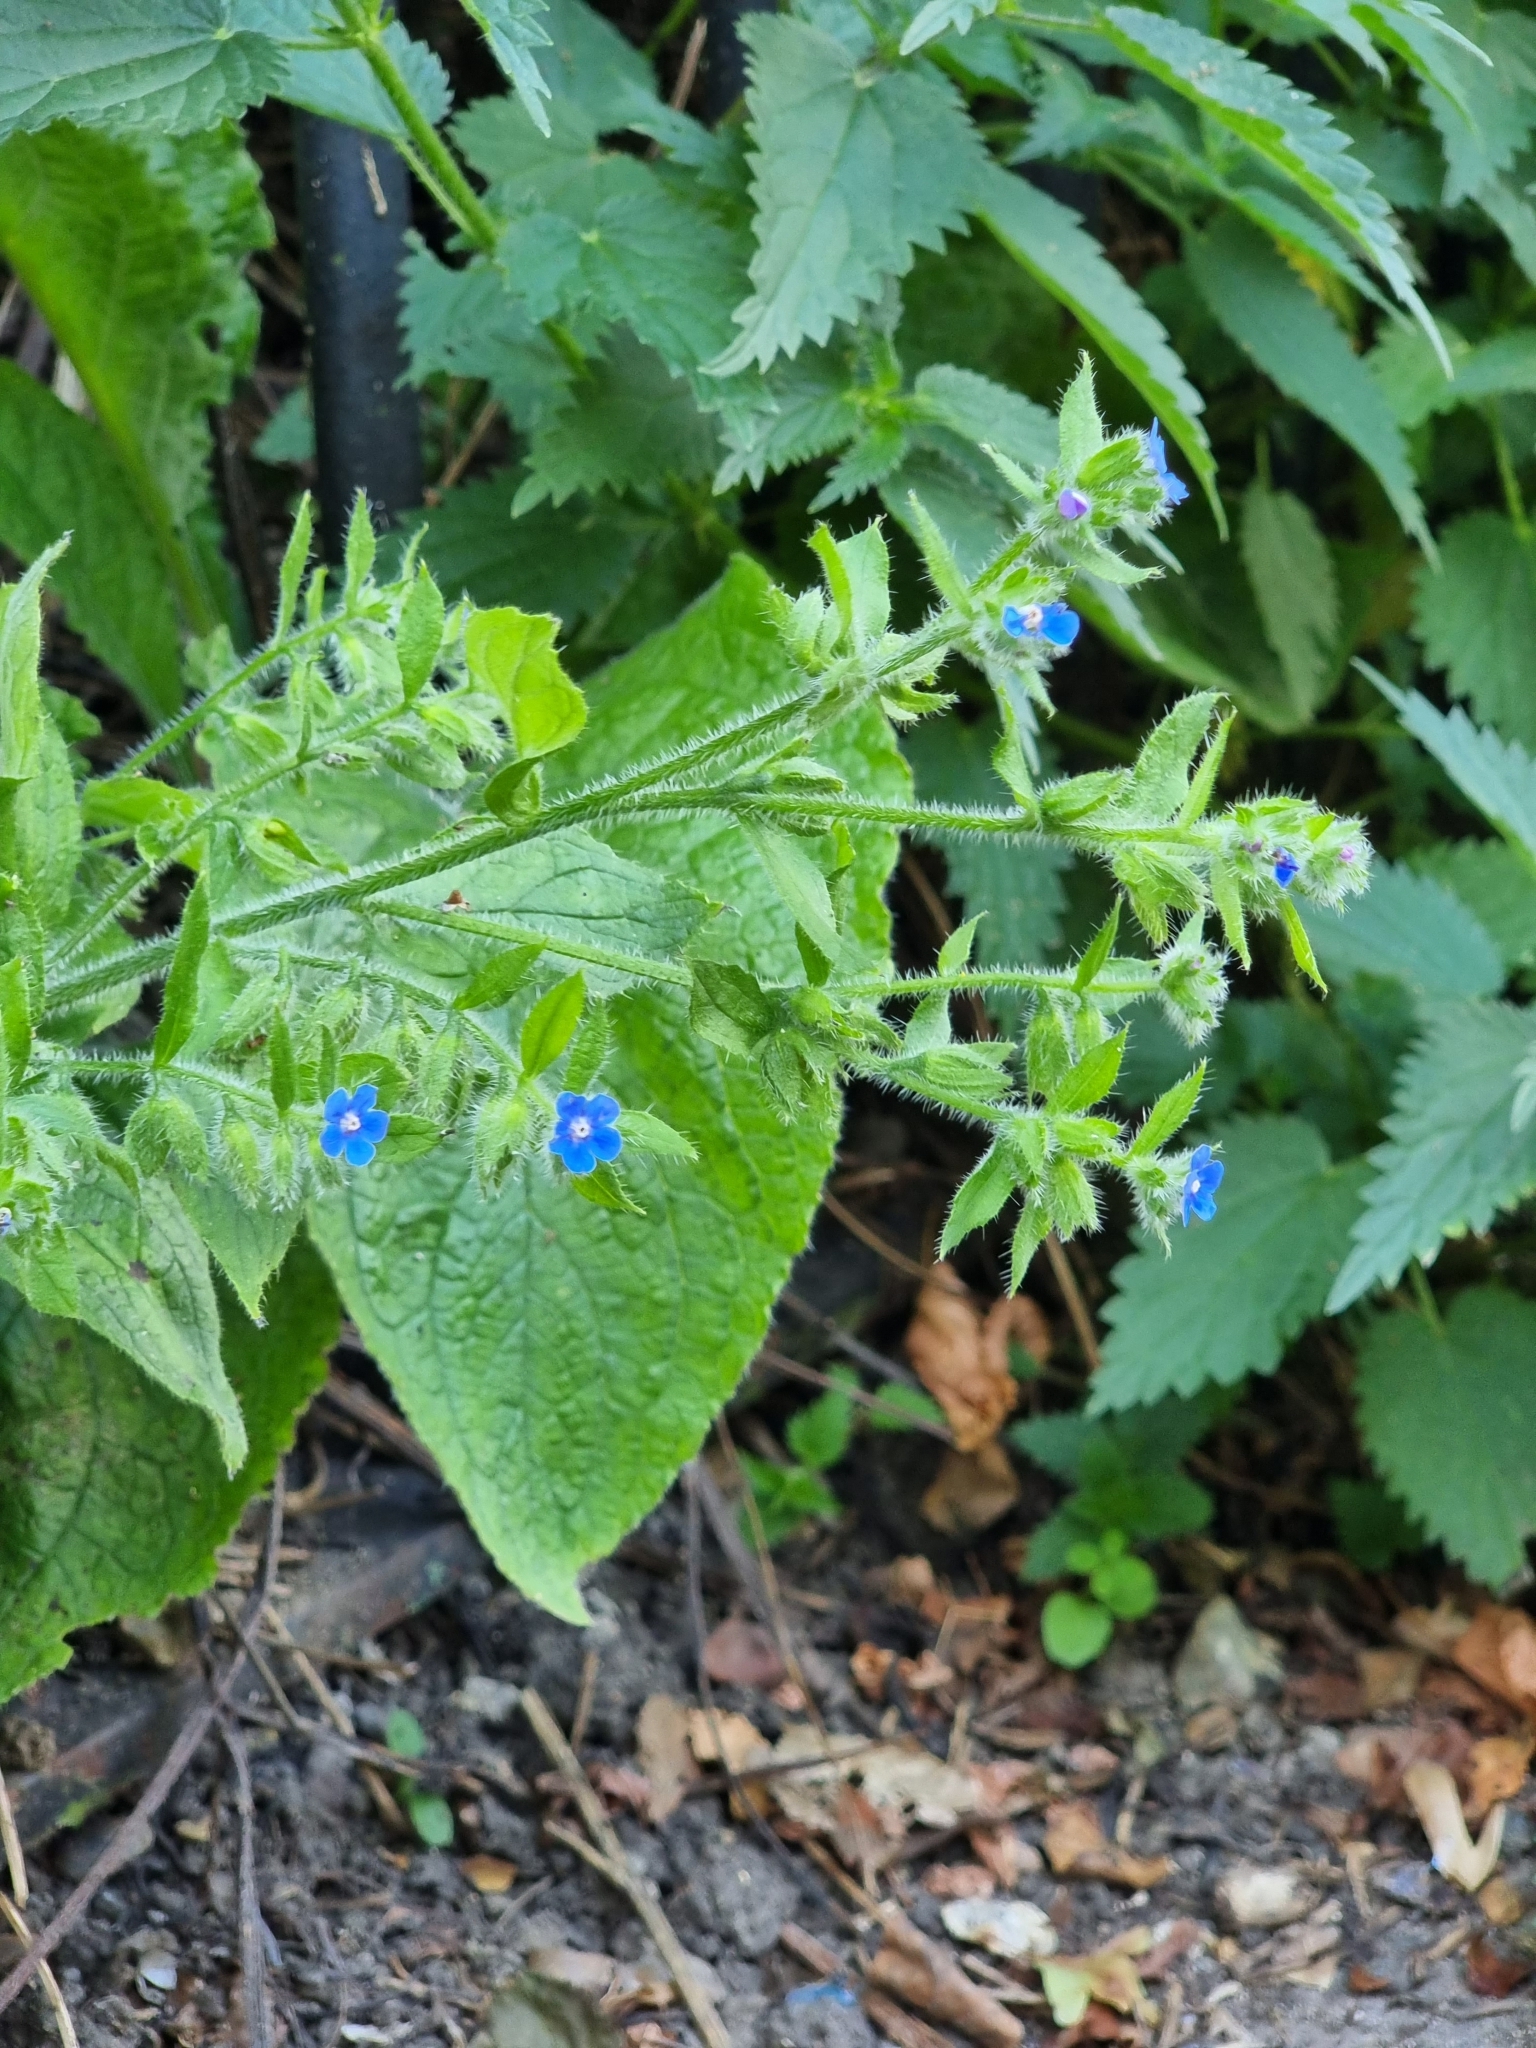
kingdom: Plantae
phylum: Tracheophyta
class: Magnoliopsida
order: Boraginales
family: Boraginaceae
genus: Pentaglottis
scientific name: Pentaglottis sempervirens
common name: Green alkanet
